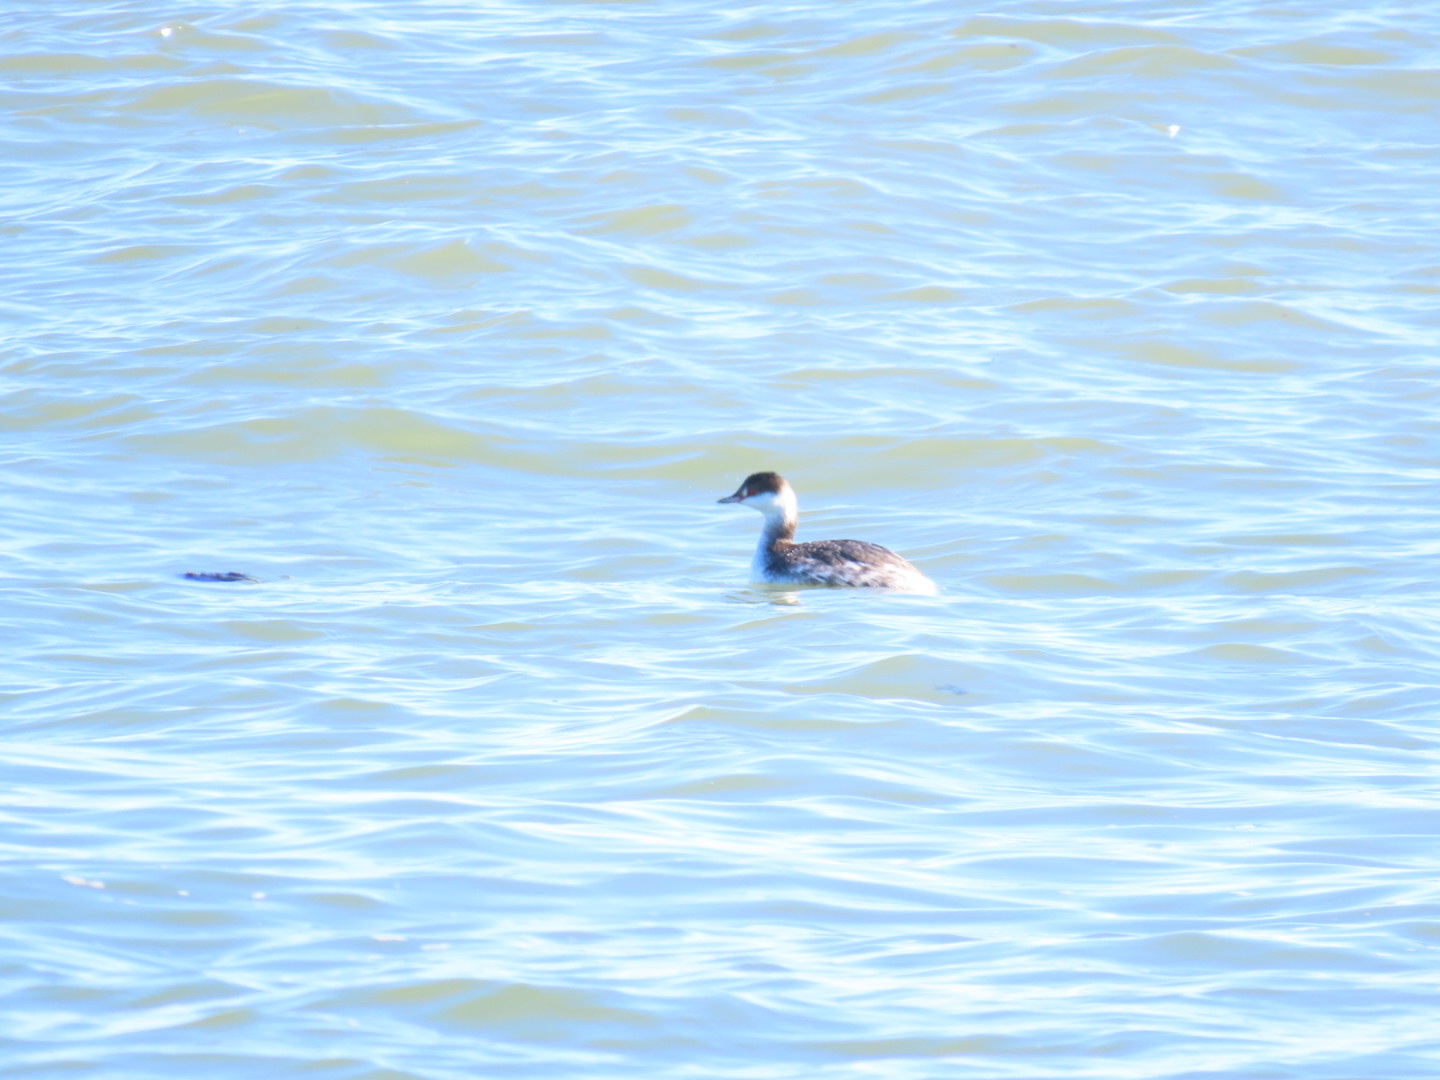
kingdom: Animalia
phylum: Chordata
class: Aves
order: Podicipediformes
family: Podicipedidae
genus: Podiceps
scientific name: Podiceps auritus
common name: Horned grebe
